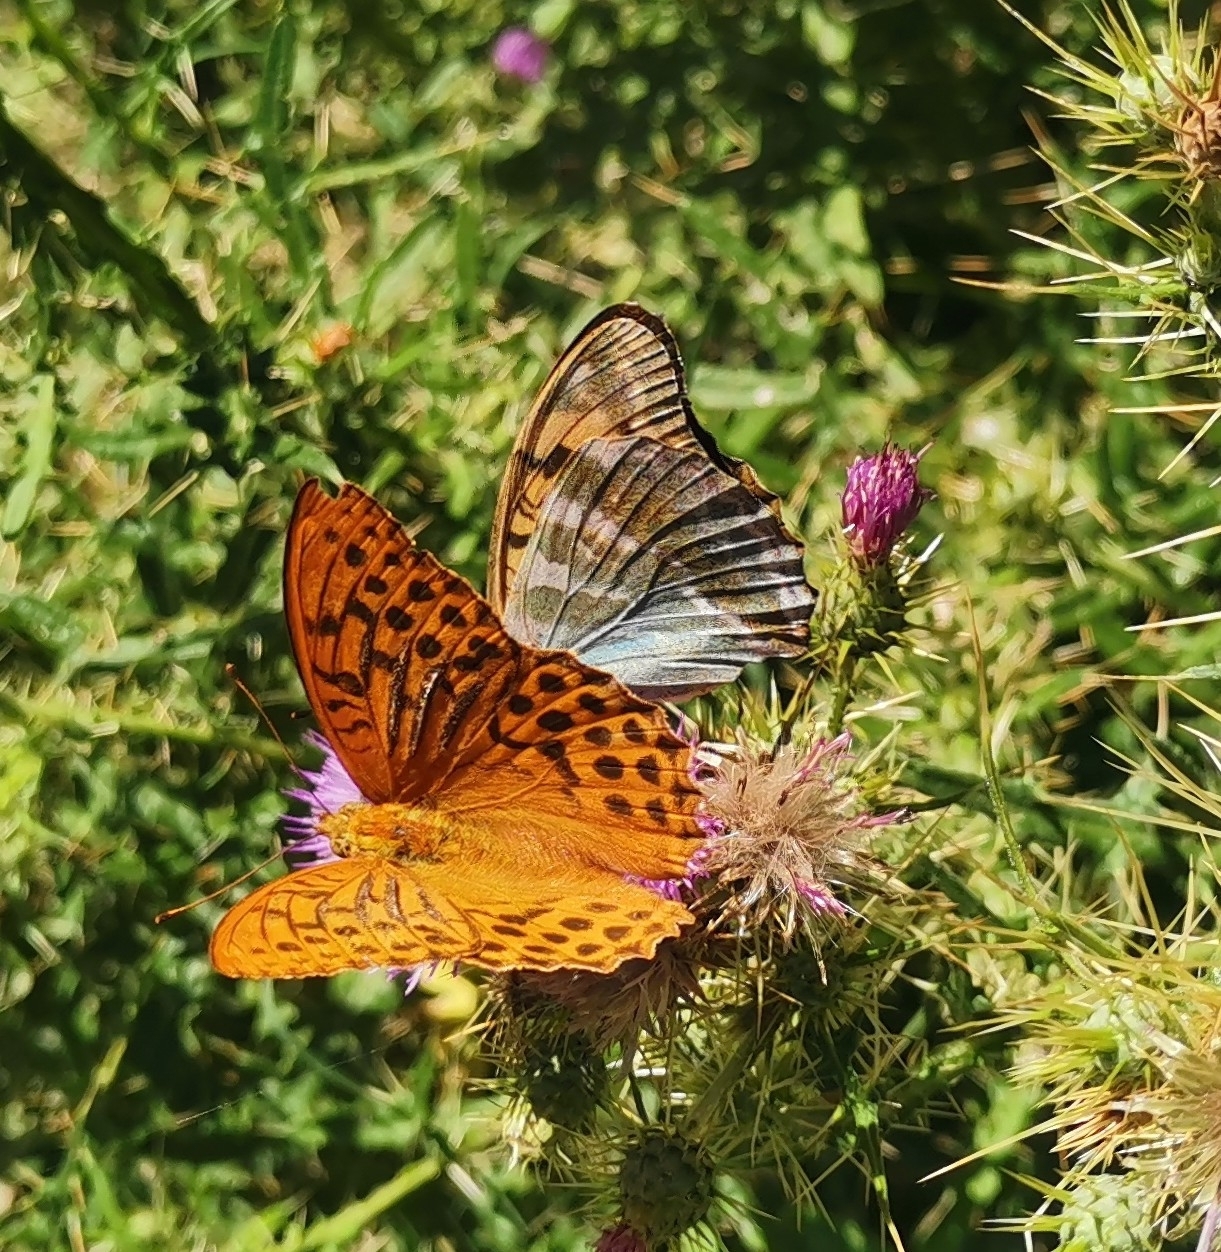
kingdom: Animalia
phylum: Arthropoda
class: Insecta
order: Lepidoptera
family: Nymphalidae
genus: Argynnis
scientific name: Argynnis paphia
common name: Silver-washed fritillary
